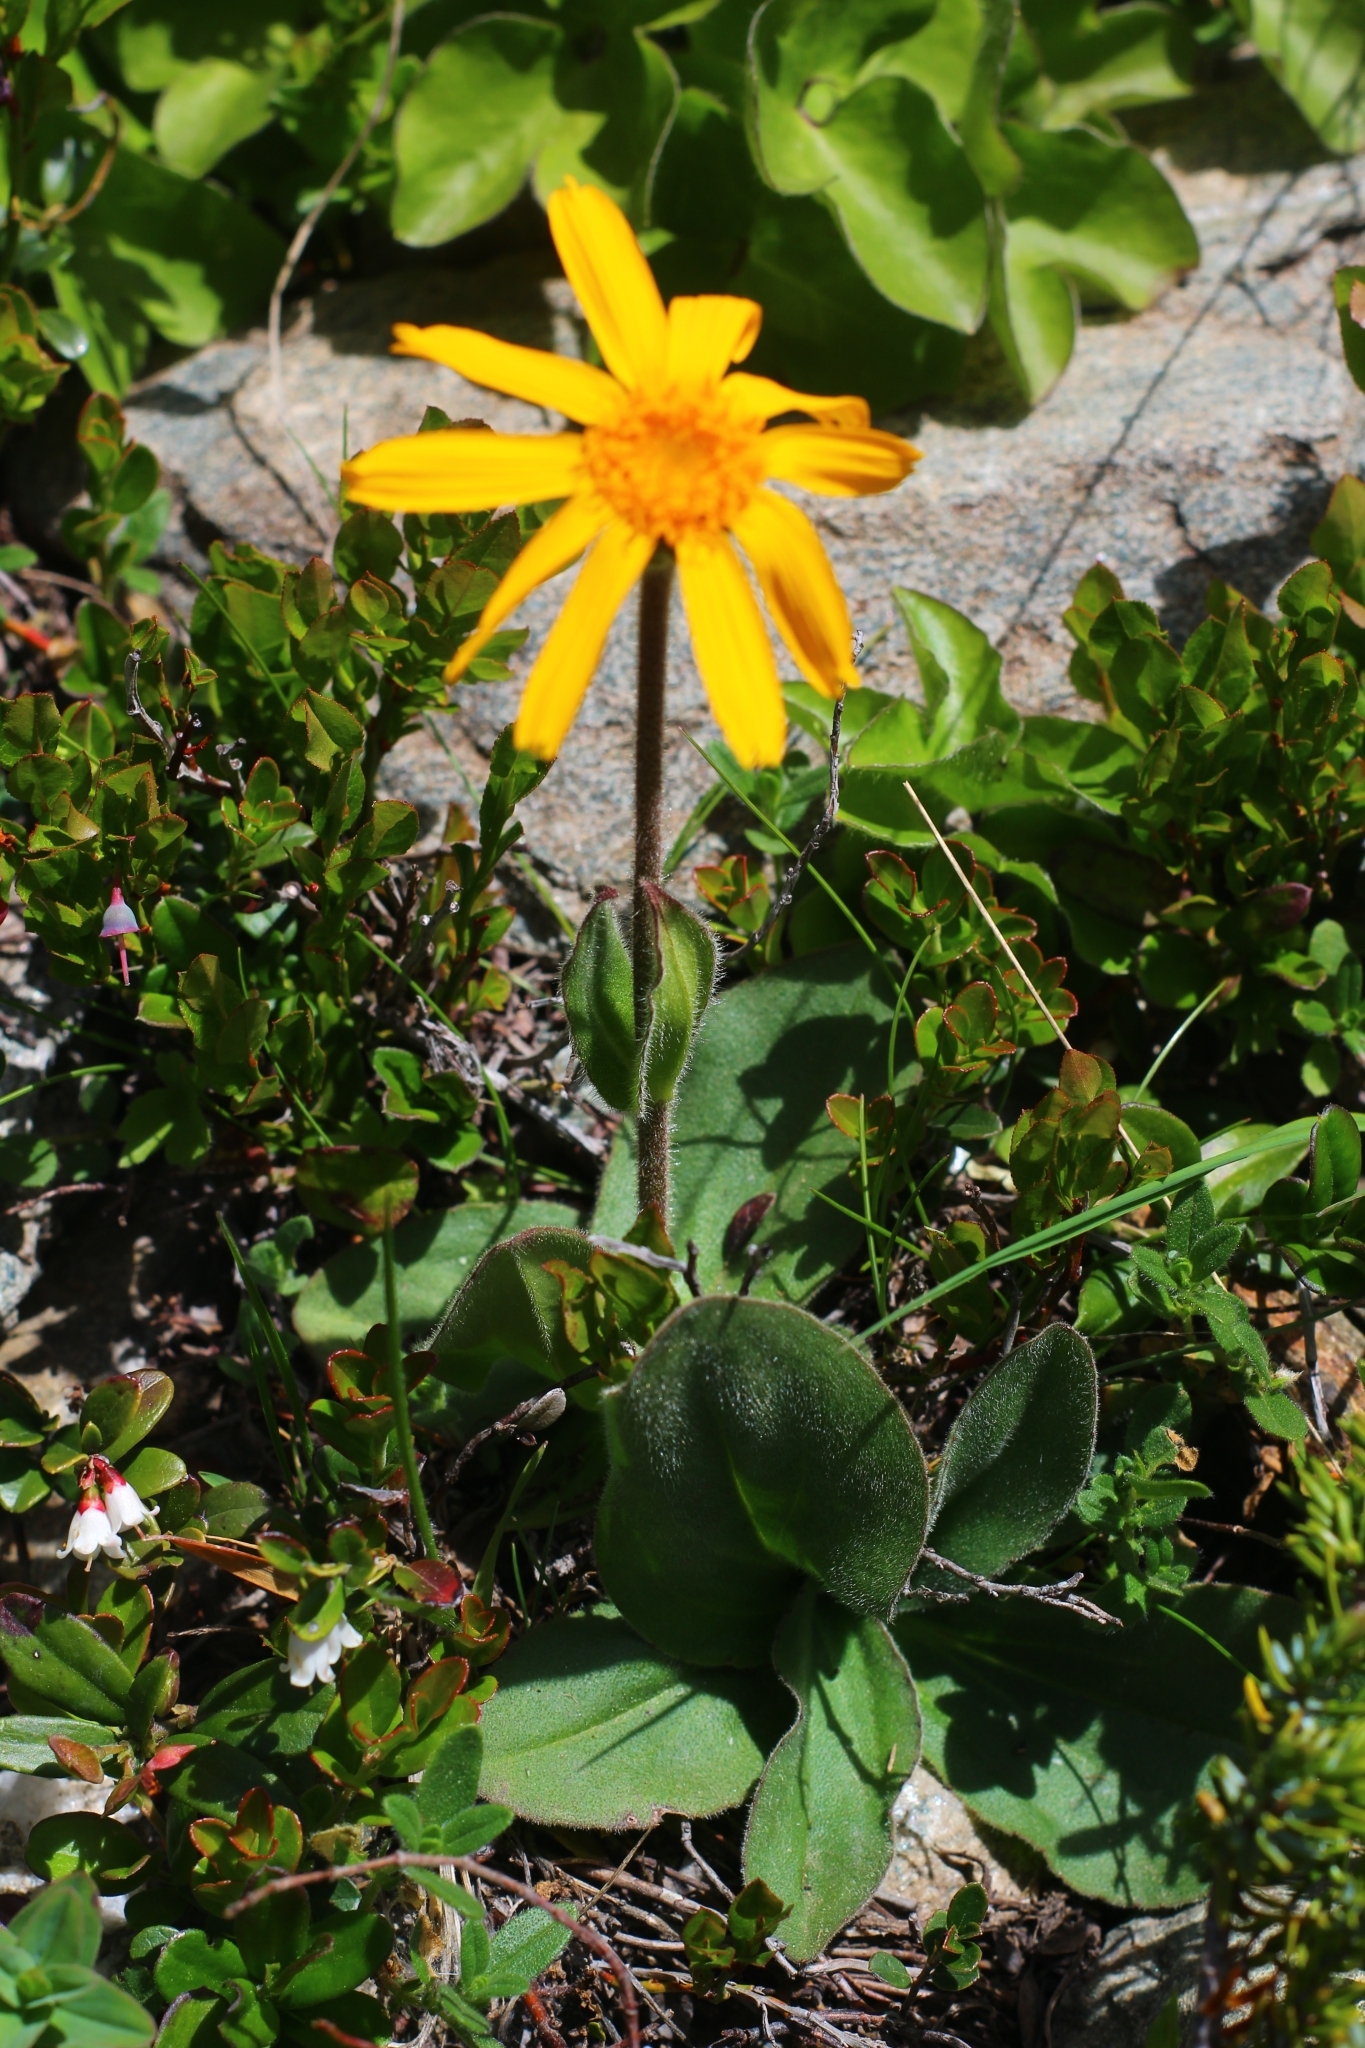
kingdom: Plantae
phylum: Tracheophyta
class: Magnoliopsida
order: Asterales
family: Asteraceae
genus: Arnica
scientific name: Arnica montana
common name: Leopard's bane
